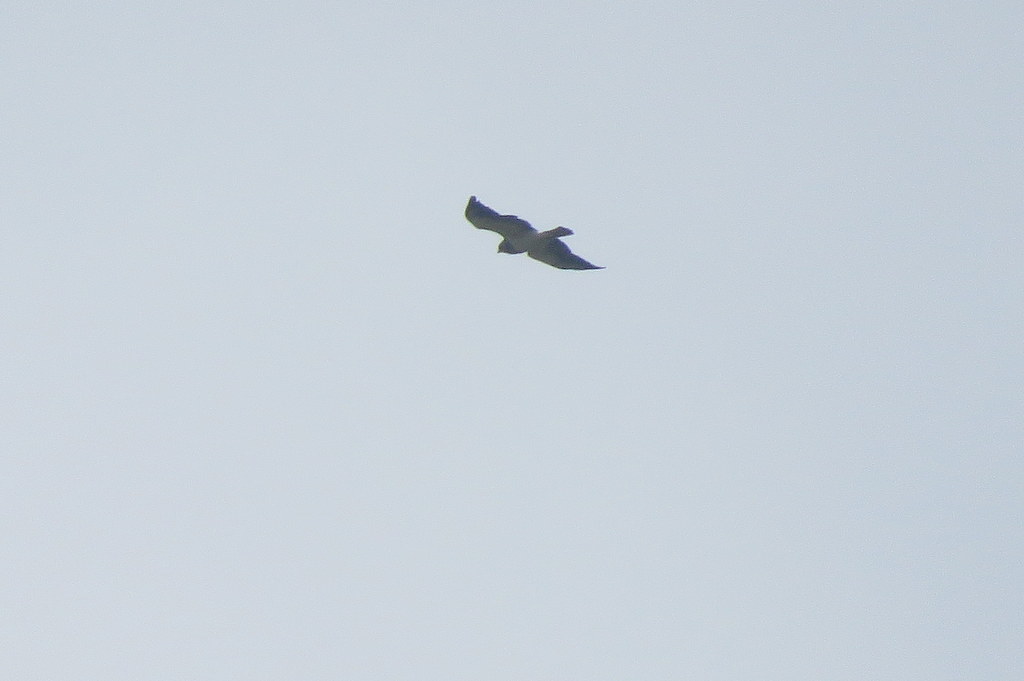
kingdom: Animalia
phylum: Chordata
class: Aves
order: Accipitriformes
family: Accipitridae
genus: Buteo
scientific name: Buteo swainsoni
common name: Swainson's hawk
